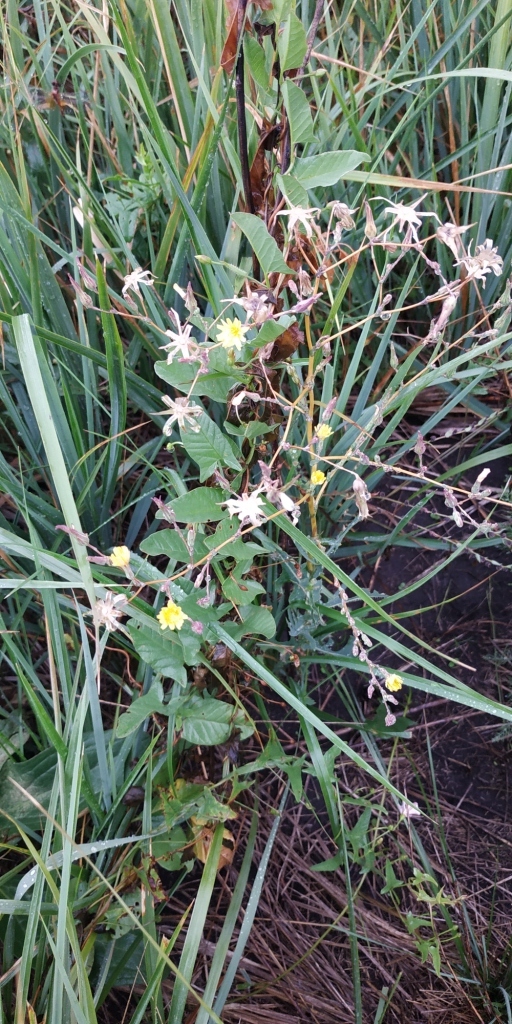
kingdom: Plantae
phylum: Tracheophyta
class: Magnoliopsida
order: Asterales
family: Asteraceae
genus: Lactuca
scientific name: Lactuca serriola
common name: Prickly lettuce
